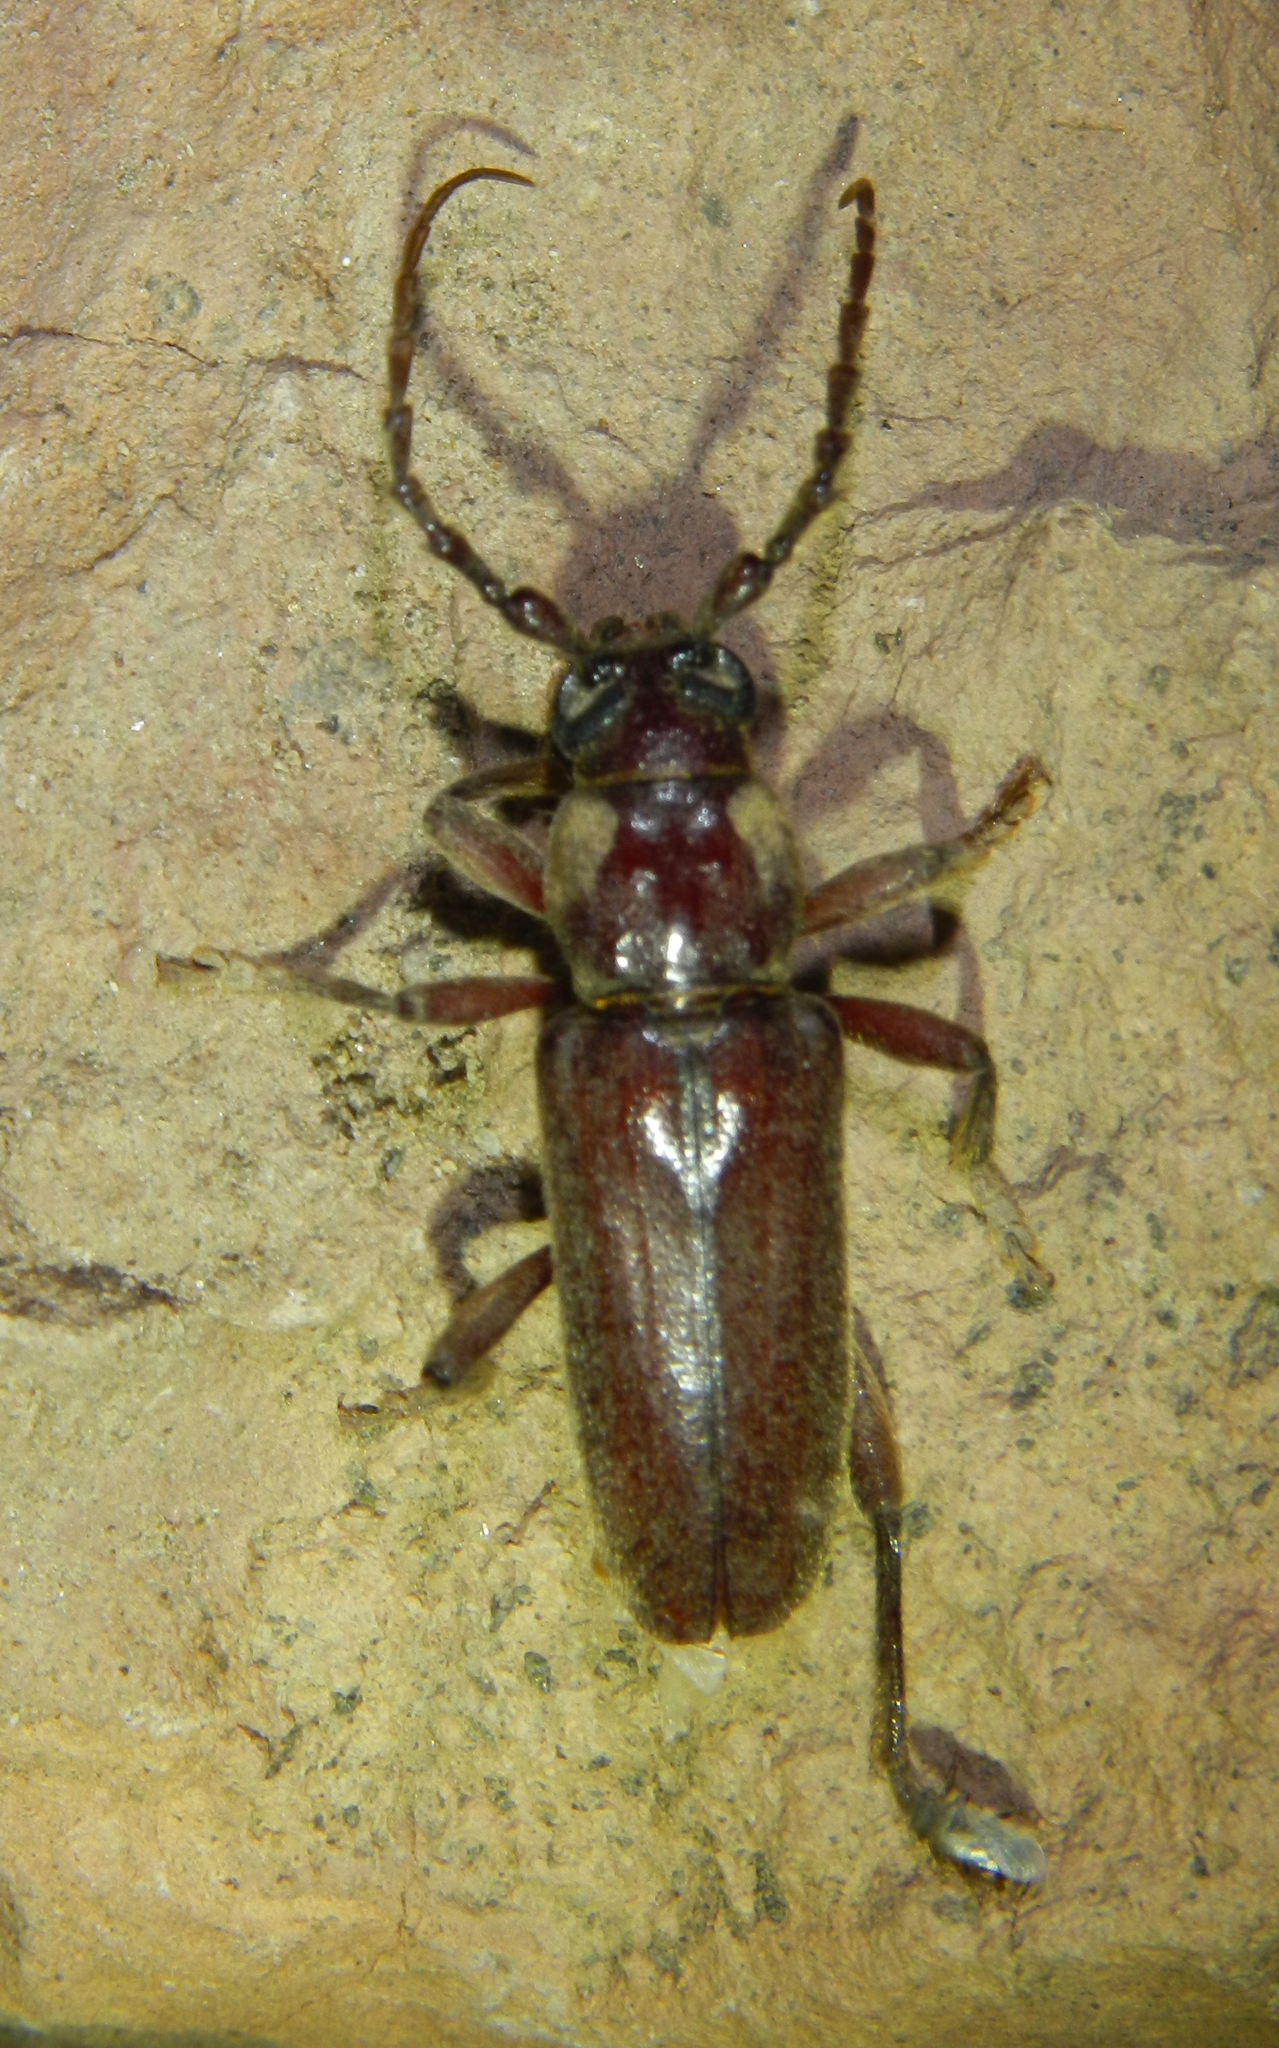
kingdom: Animalia
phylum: Arthropoda
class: Insecta
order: Coleoptera
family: Cerambycidae
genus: Eustromula
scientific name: Eustromula validum
